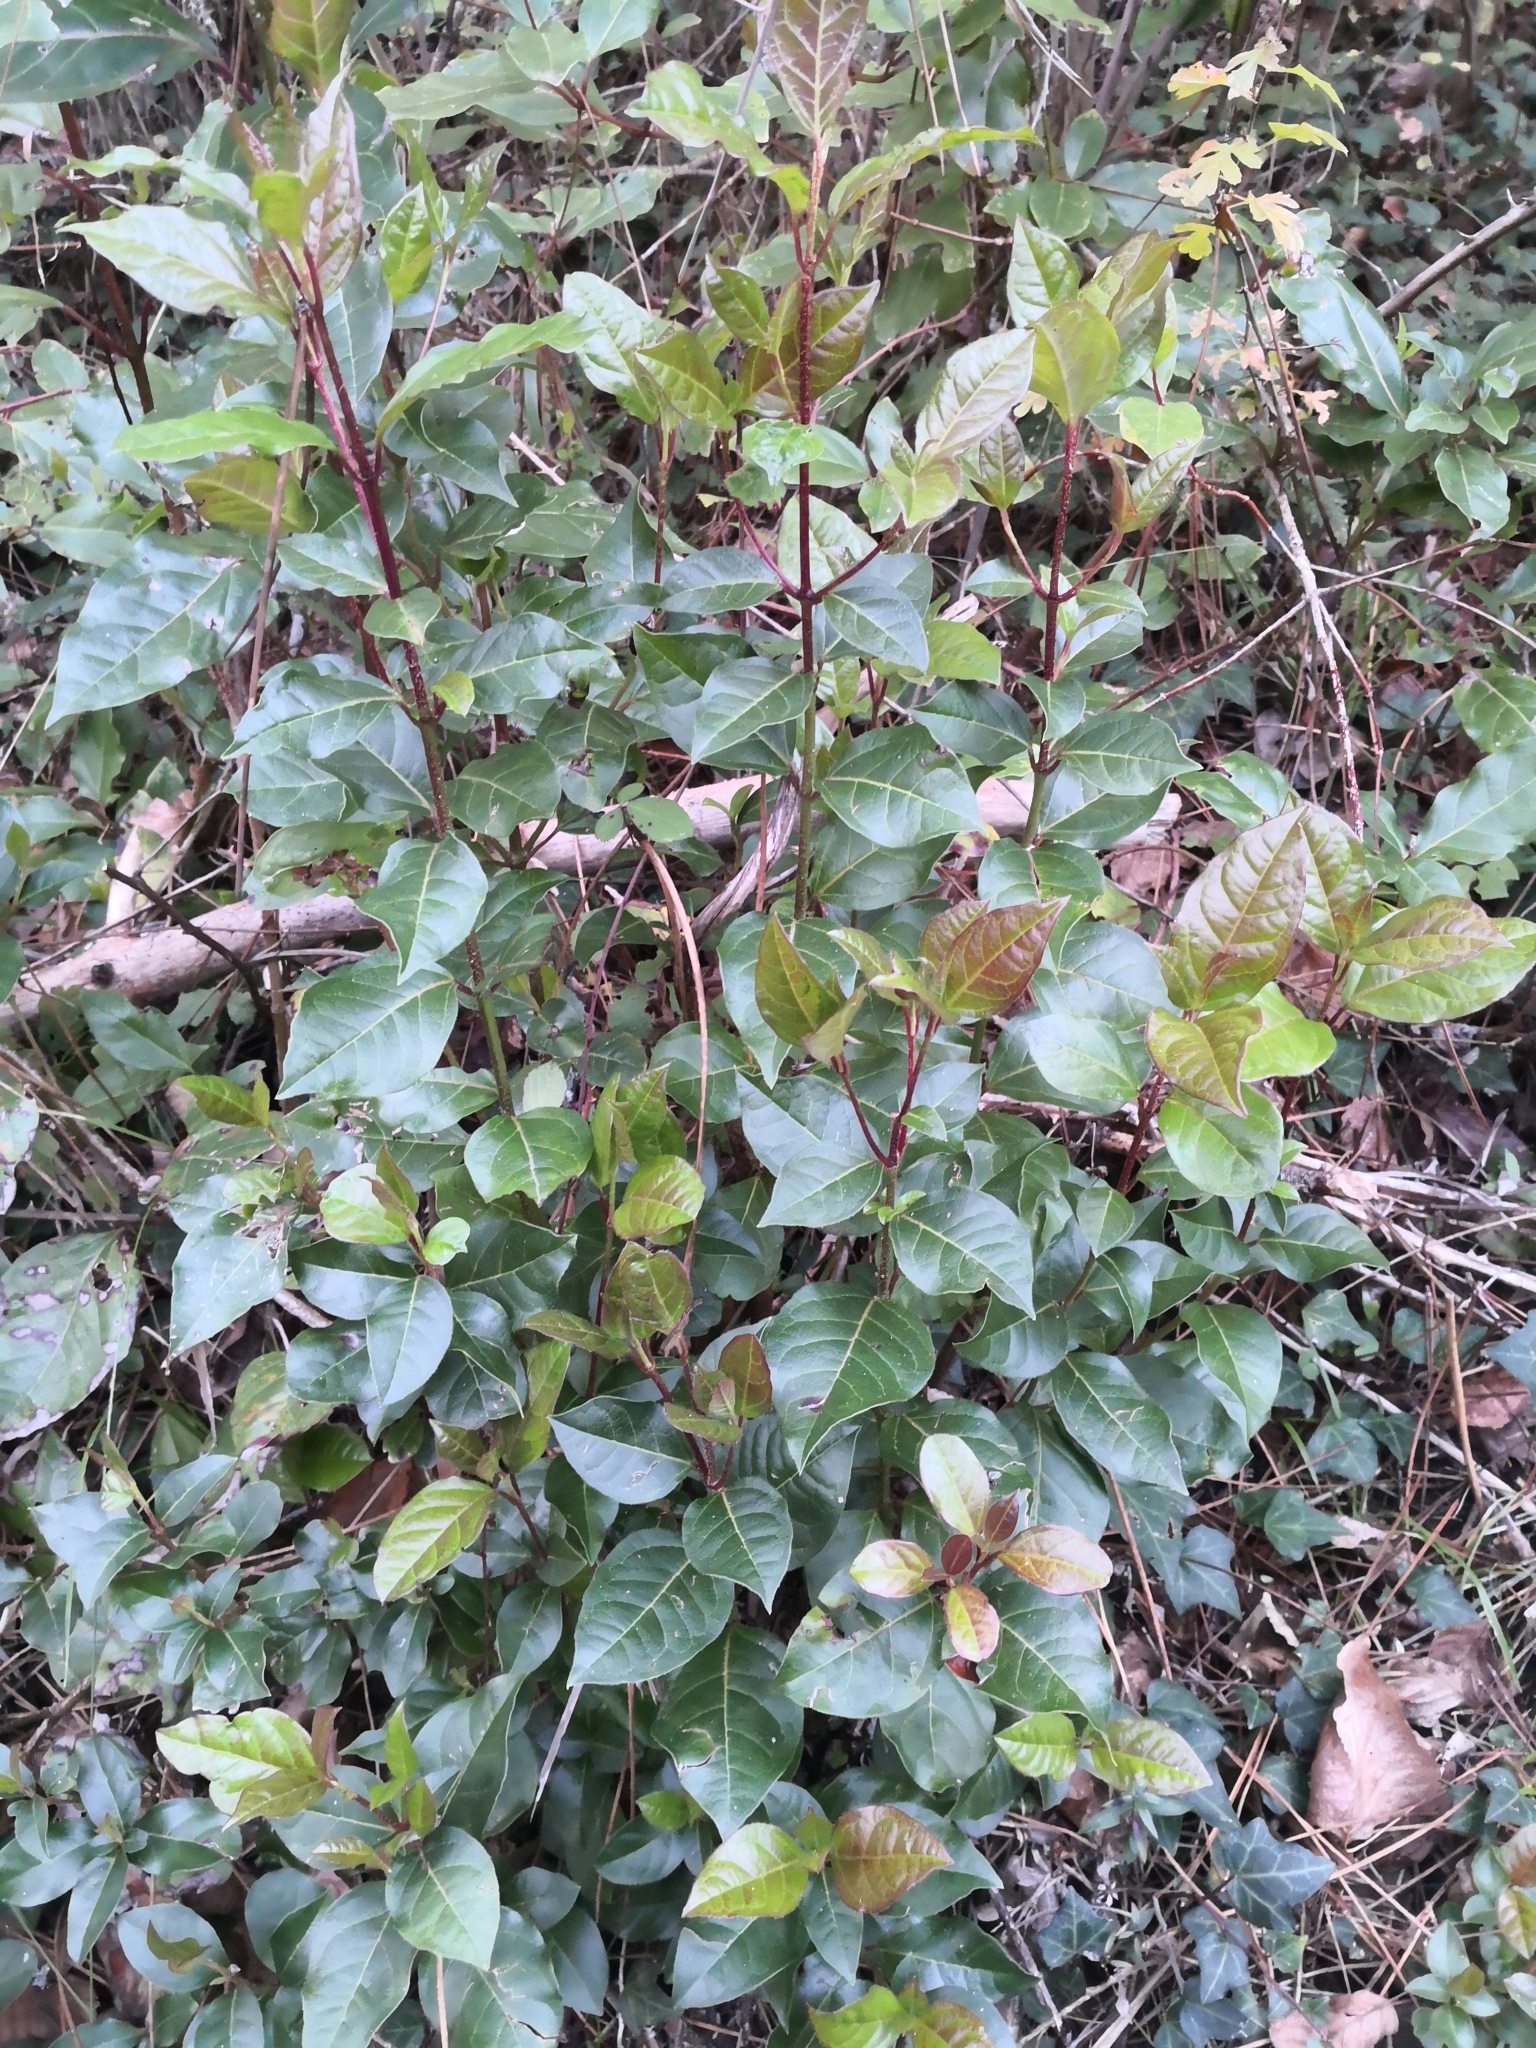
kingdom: Plantae
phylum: Tracheophyta
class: Magnoliopsida
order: Dipsacales
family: Viburnaceae
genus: Viburnum
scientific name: Viburnum tinus
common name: Laurustinus
